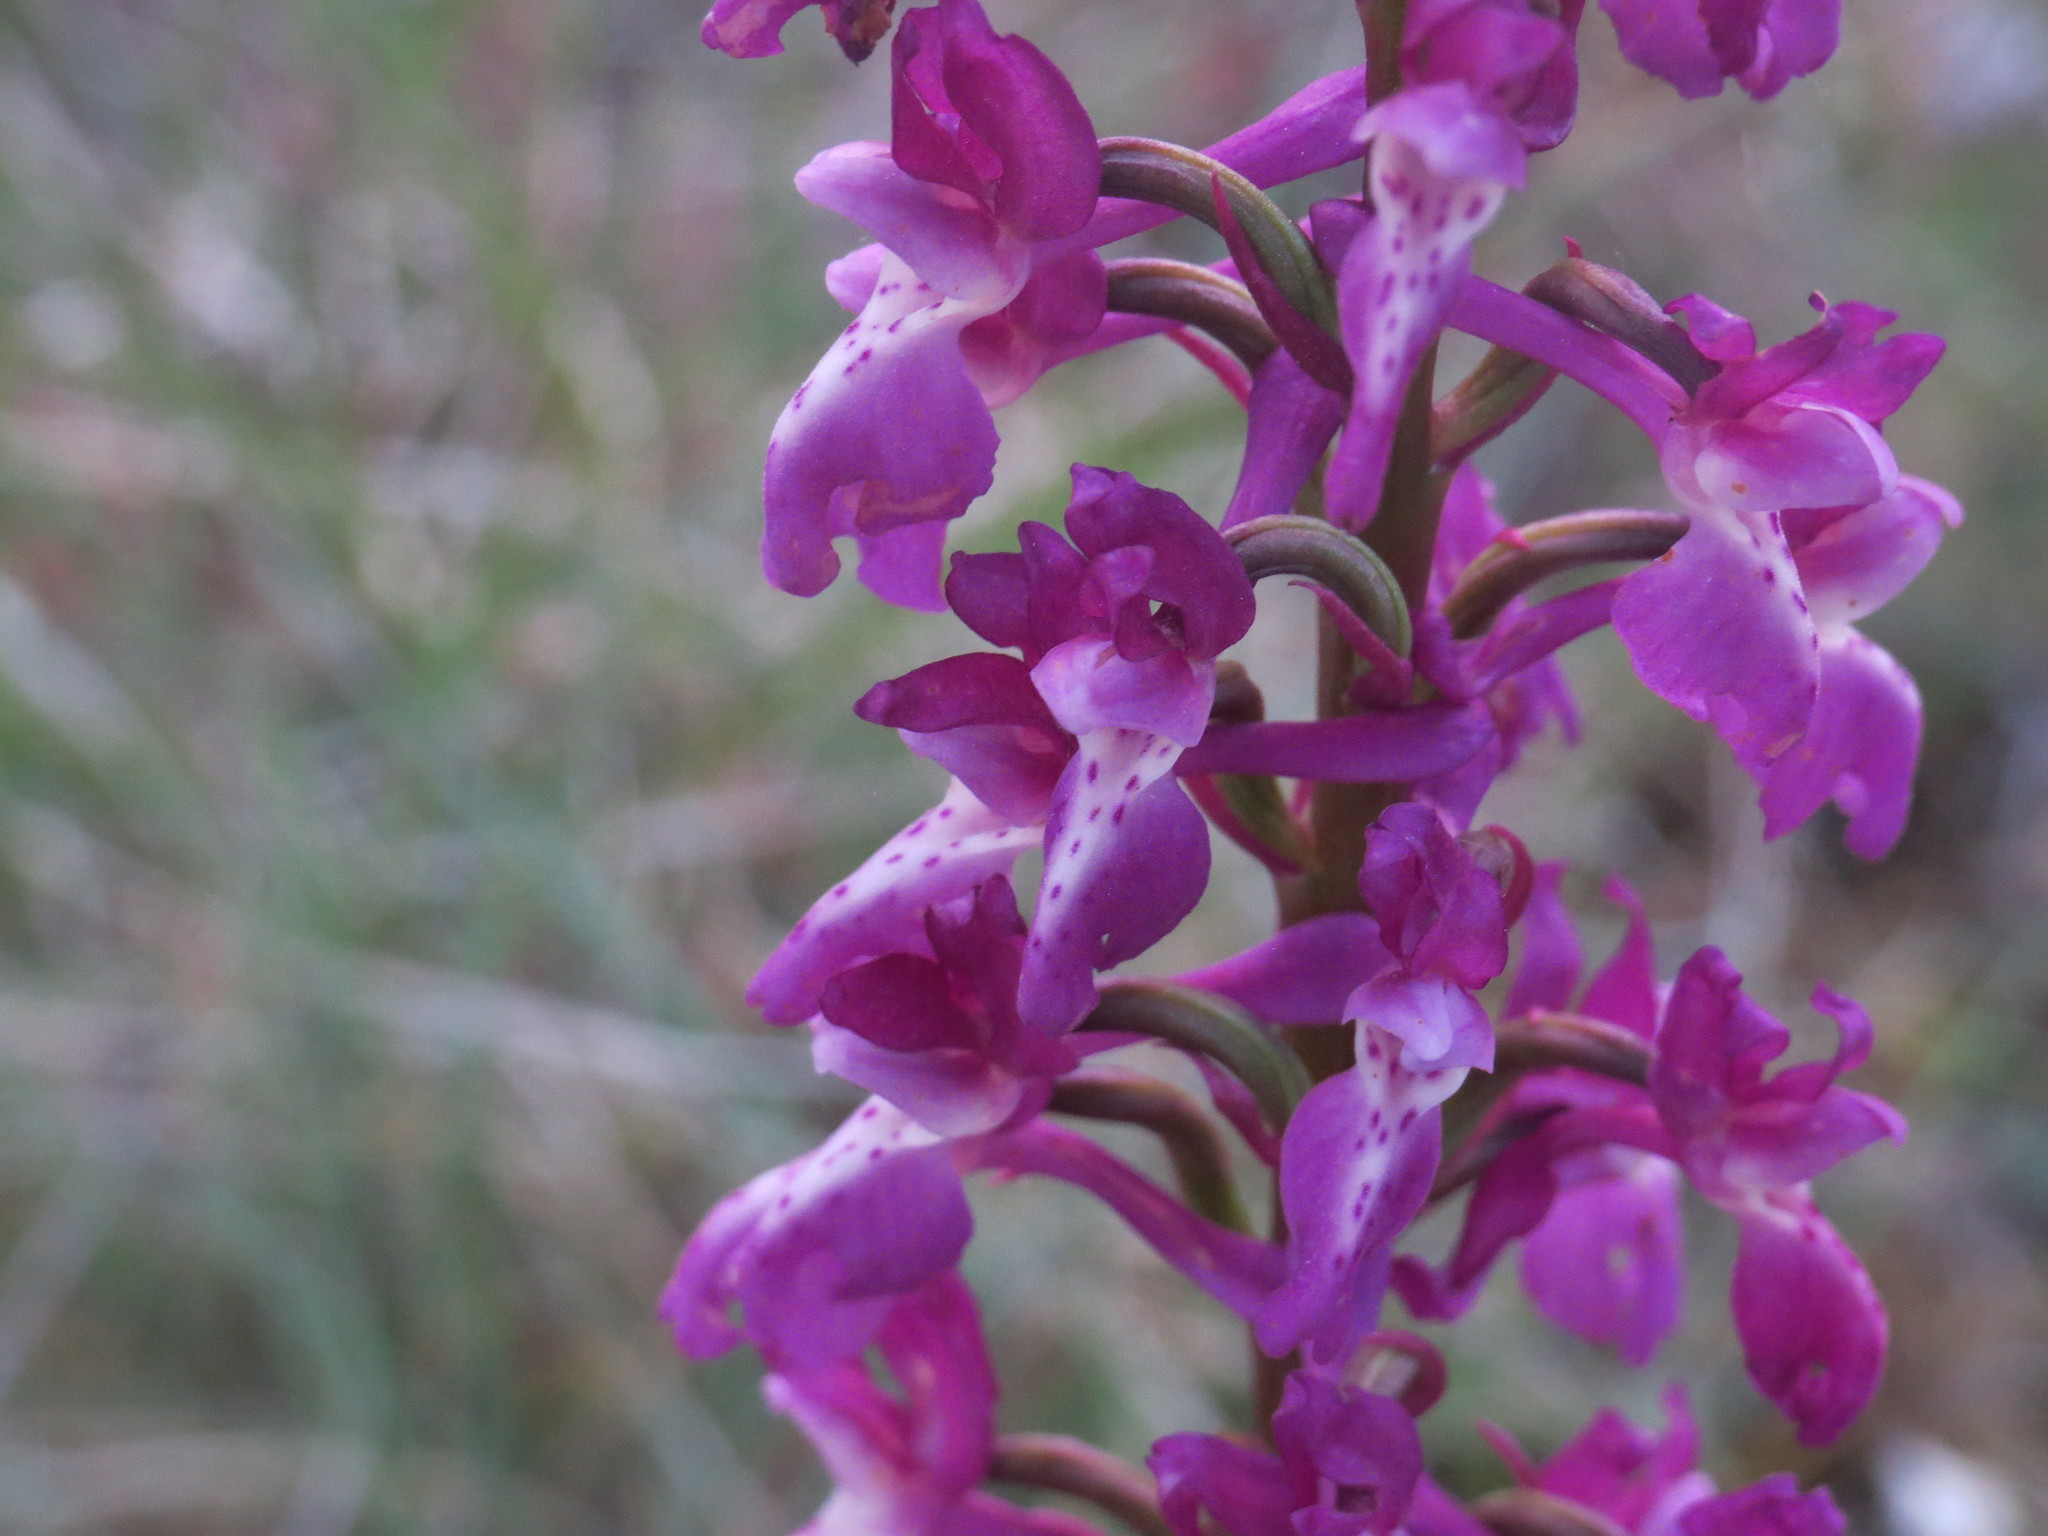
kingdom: Plantae
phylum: Tracheophyta
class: Liliopsida
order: Asparagales
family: Orchidaceae
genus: Orchis
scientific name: Orchis mascula
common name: Early-purple orchid
